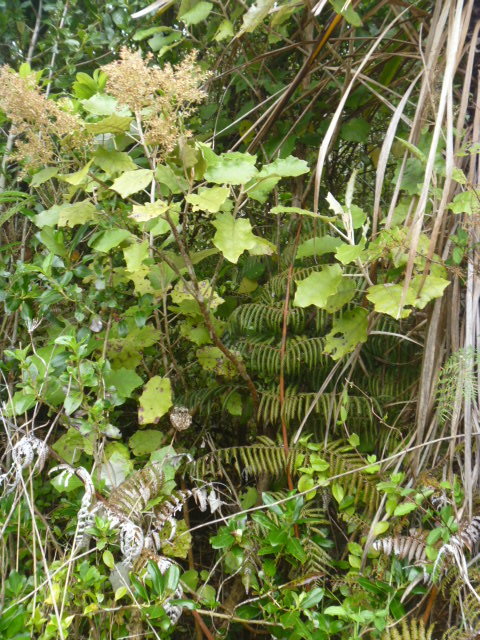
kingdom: Plantae
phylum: Tracheophyta
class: Magnoliopsida
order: Asterales
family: Asteraceae
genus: Brachyglottis
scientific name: Brachyglottis repanda
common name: Hedge ragwort
